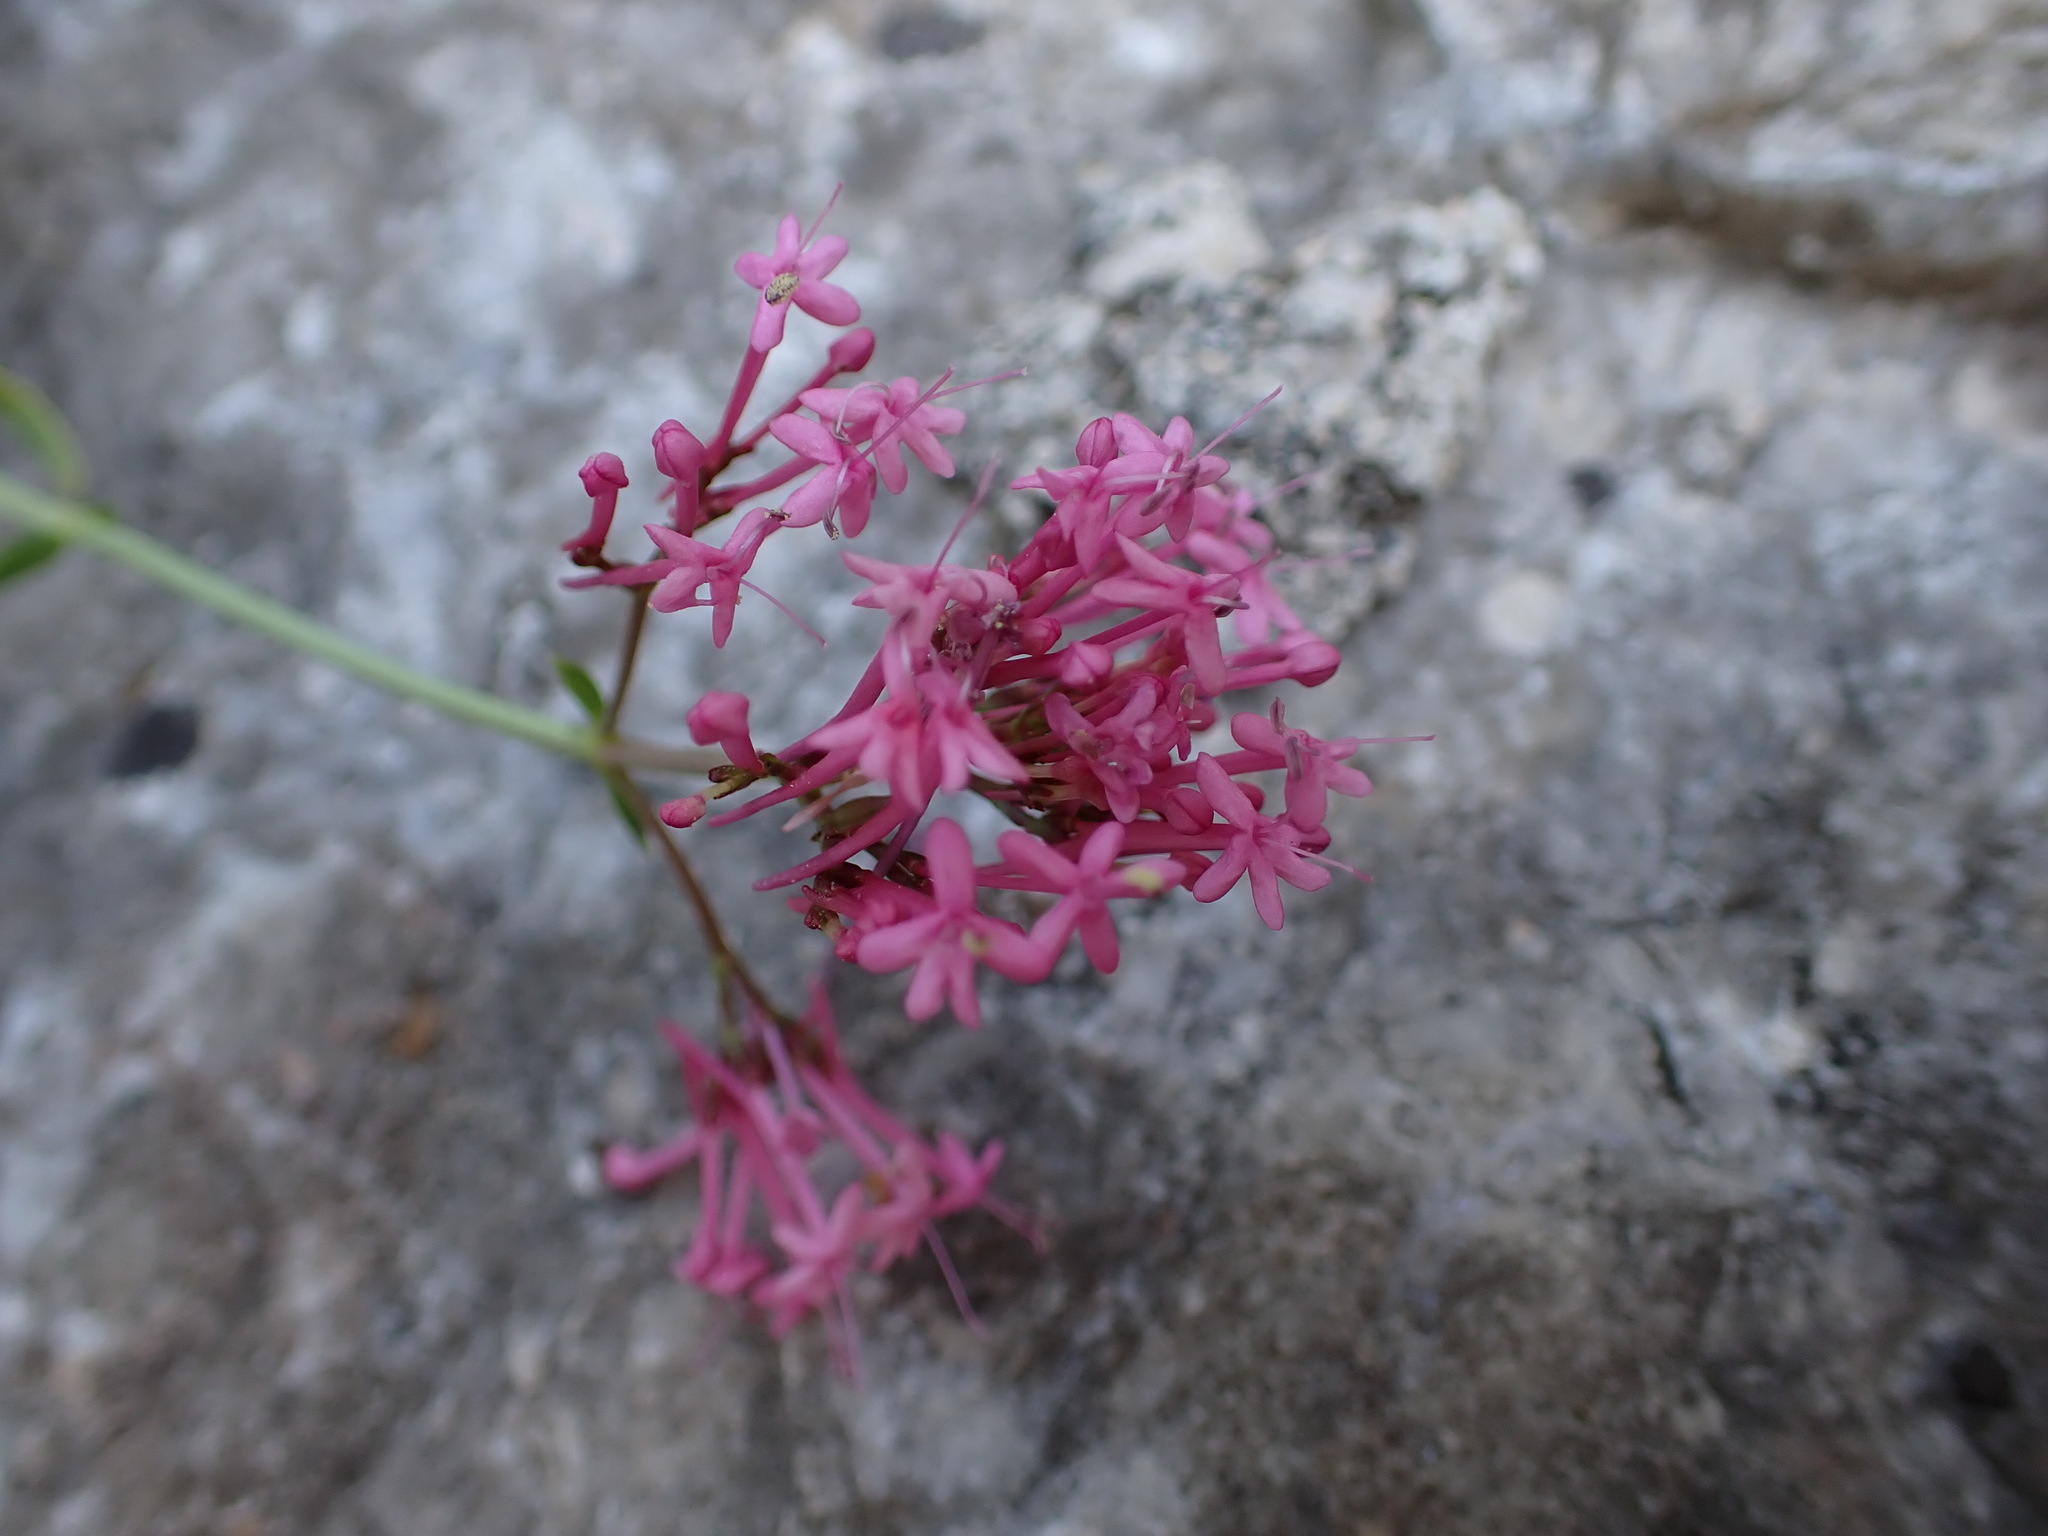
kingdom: Plantae
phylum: Tracheophyta
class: Magnoliopsida
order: Dipsacales
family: Caprifoliaceae
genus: Centranthus
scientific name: Centranthus ruber
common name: Red valerian
